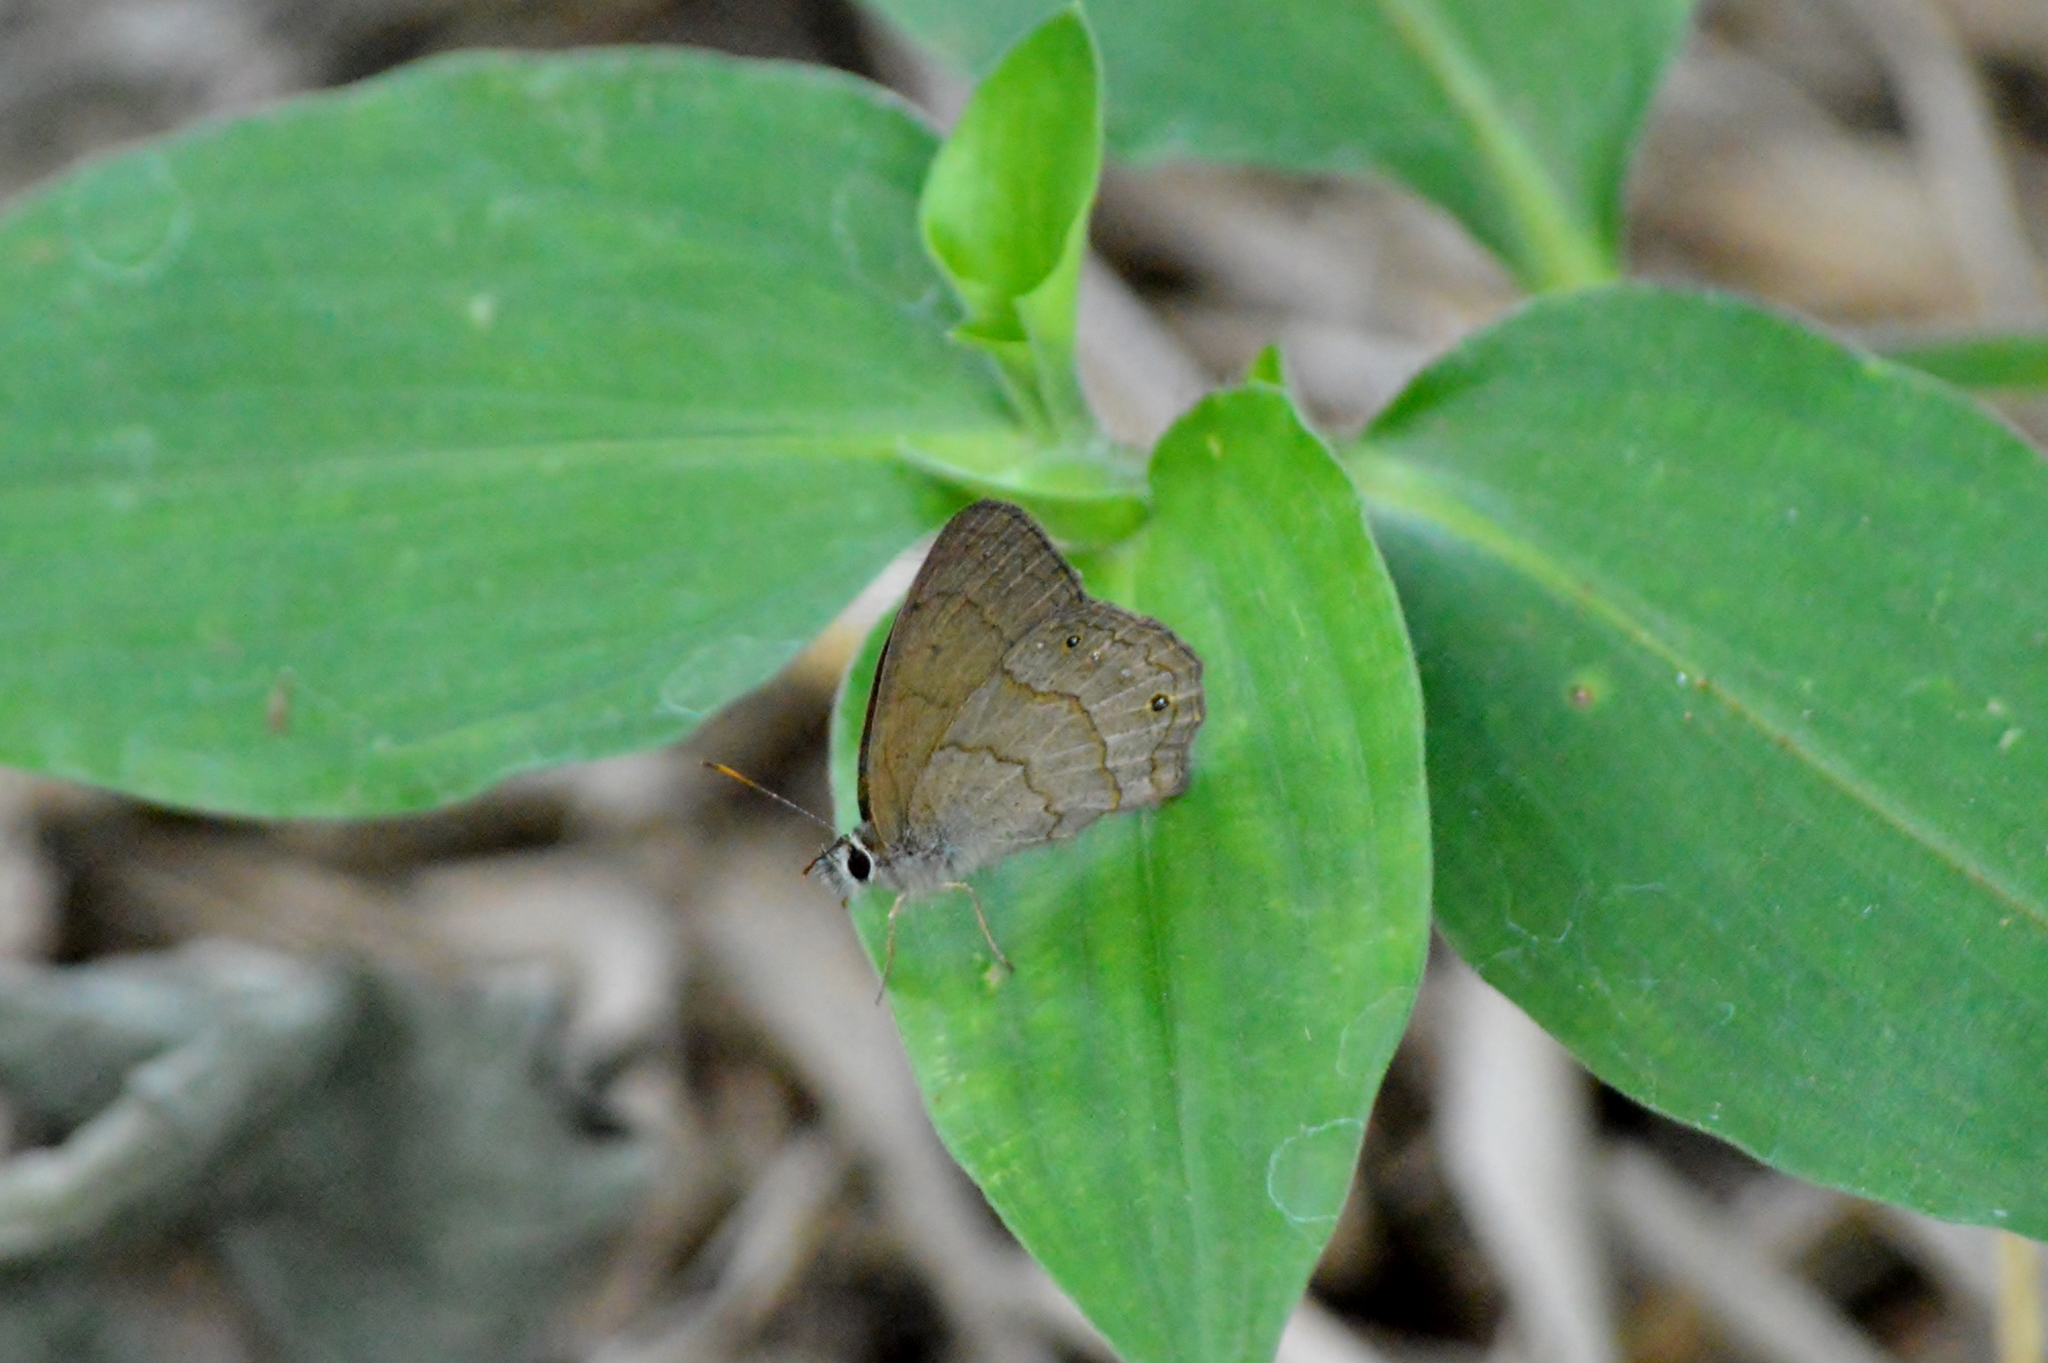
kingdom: Animalia
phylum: Arthropoda
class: Insecta
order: Lepidoptera
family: Nymphalidae
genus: Euptychia
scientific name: Euptychia Cissia eous
